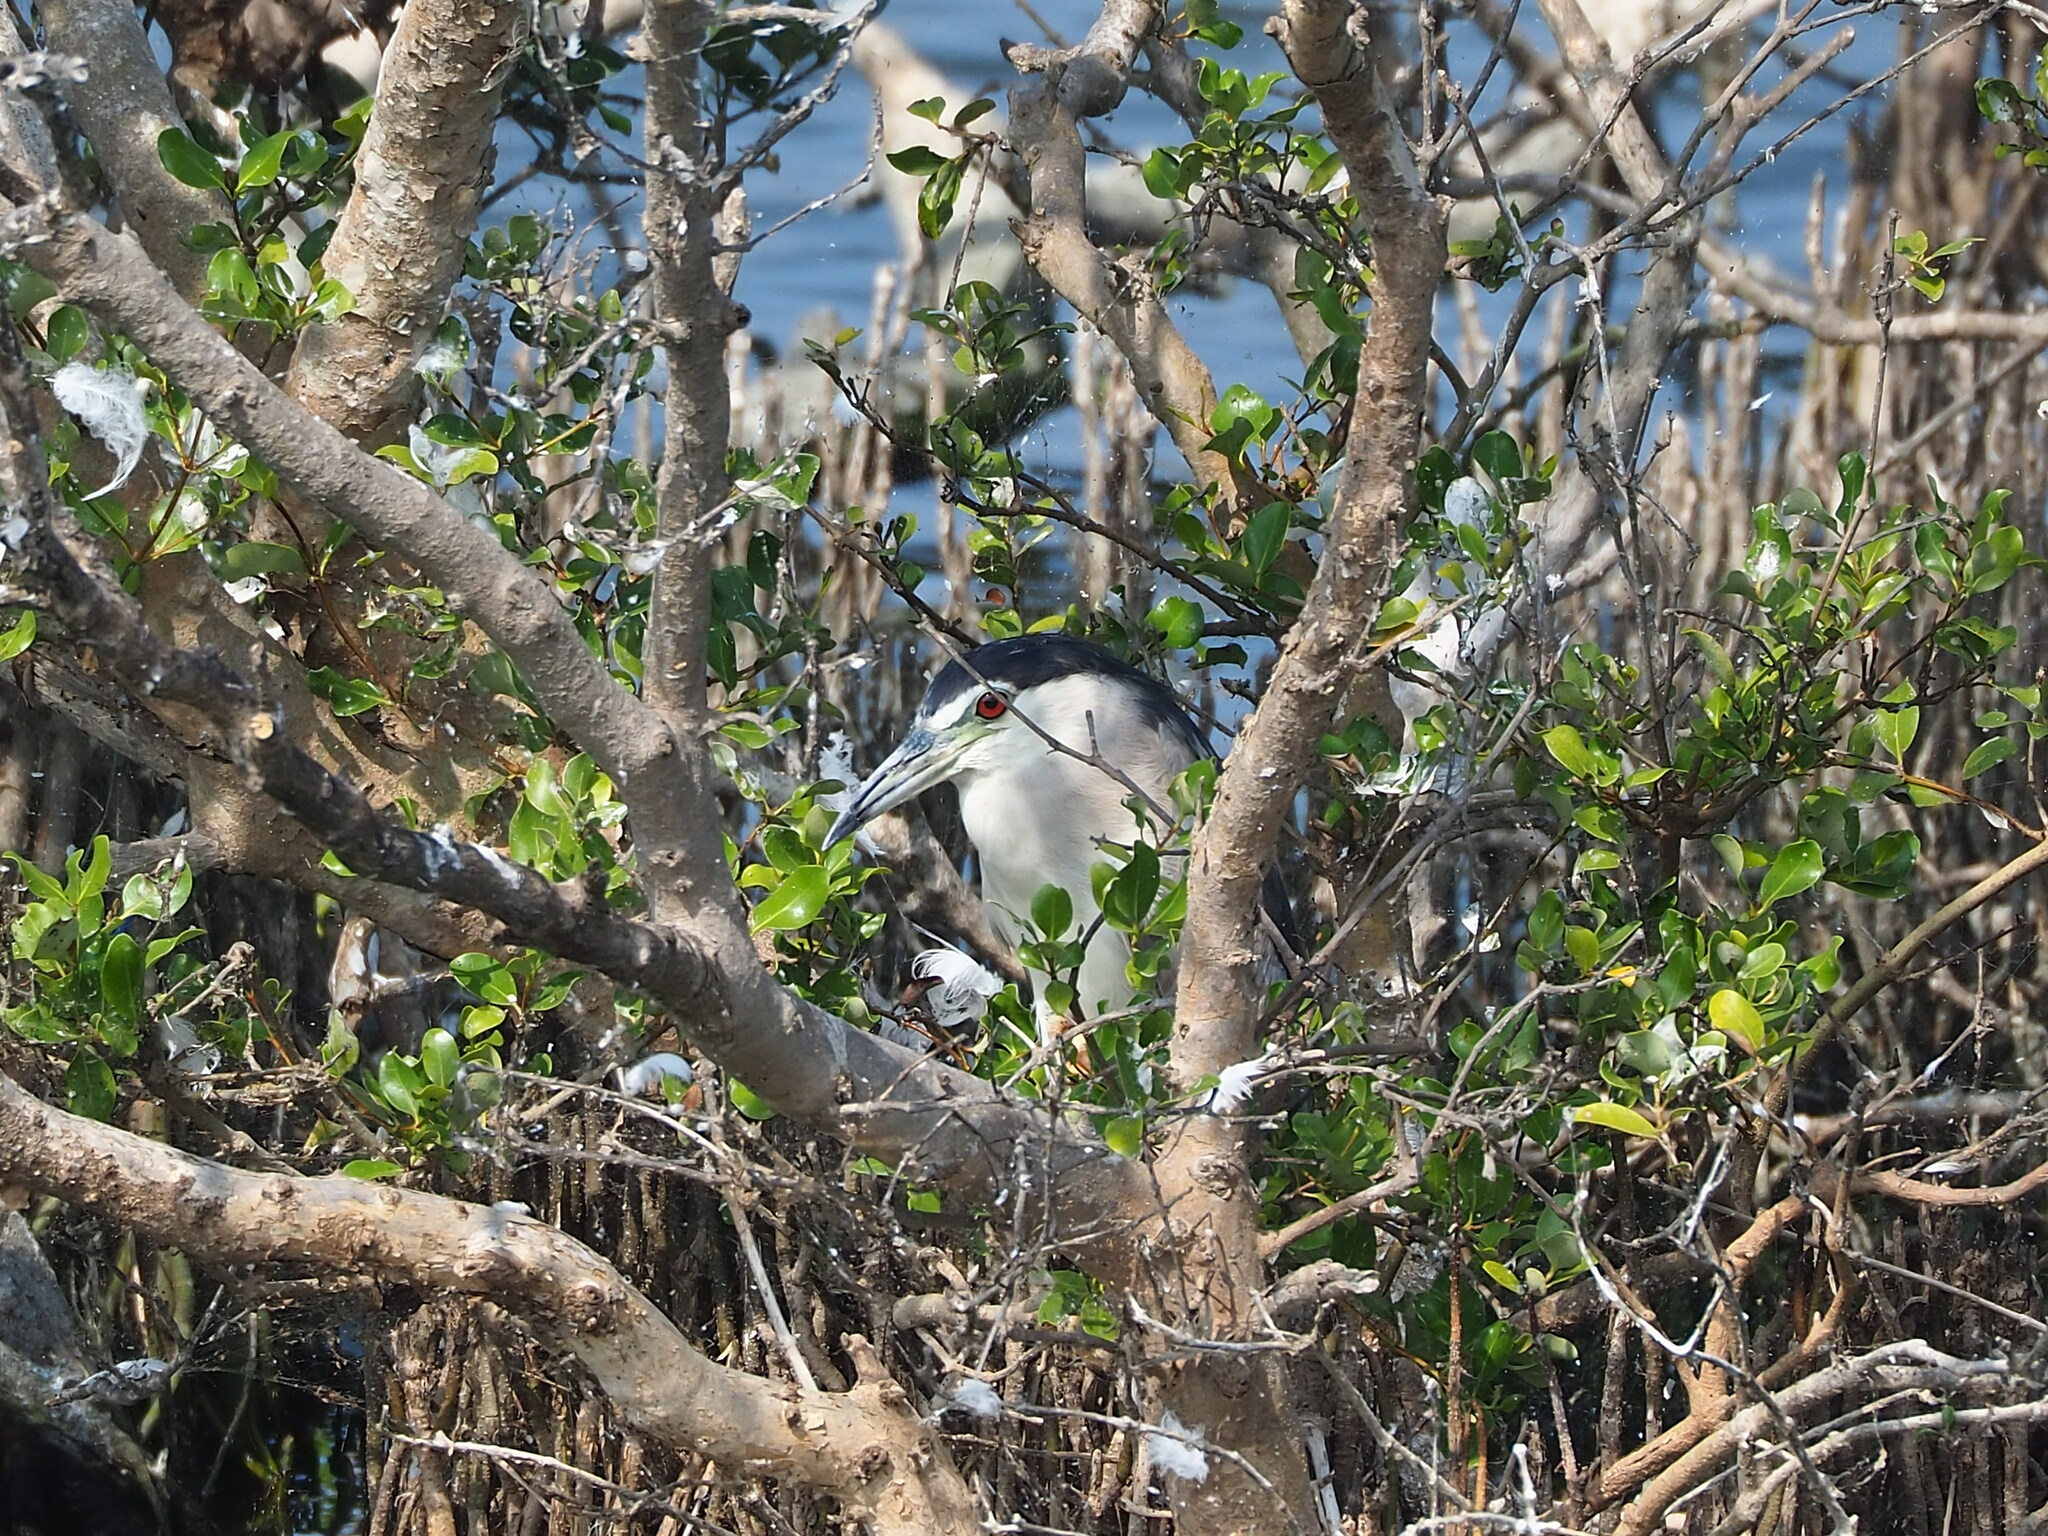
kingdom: Animalia
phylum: Chordata
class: Aves
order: Pelecaniformes
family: Ardeidae
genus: Nycticorax
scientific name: Nycticorax nycticorax
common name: Black-crowned night heron
